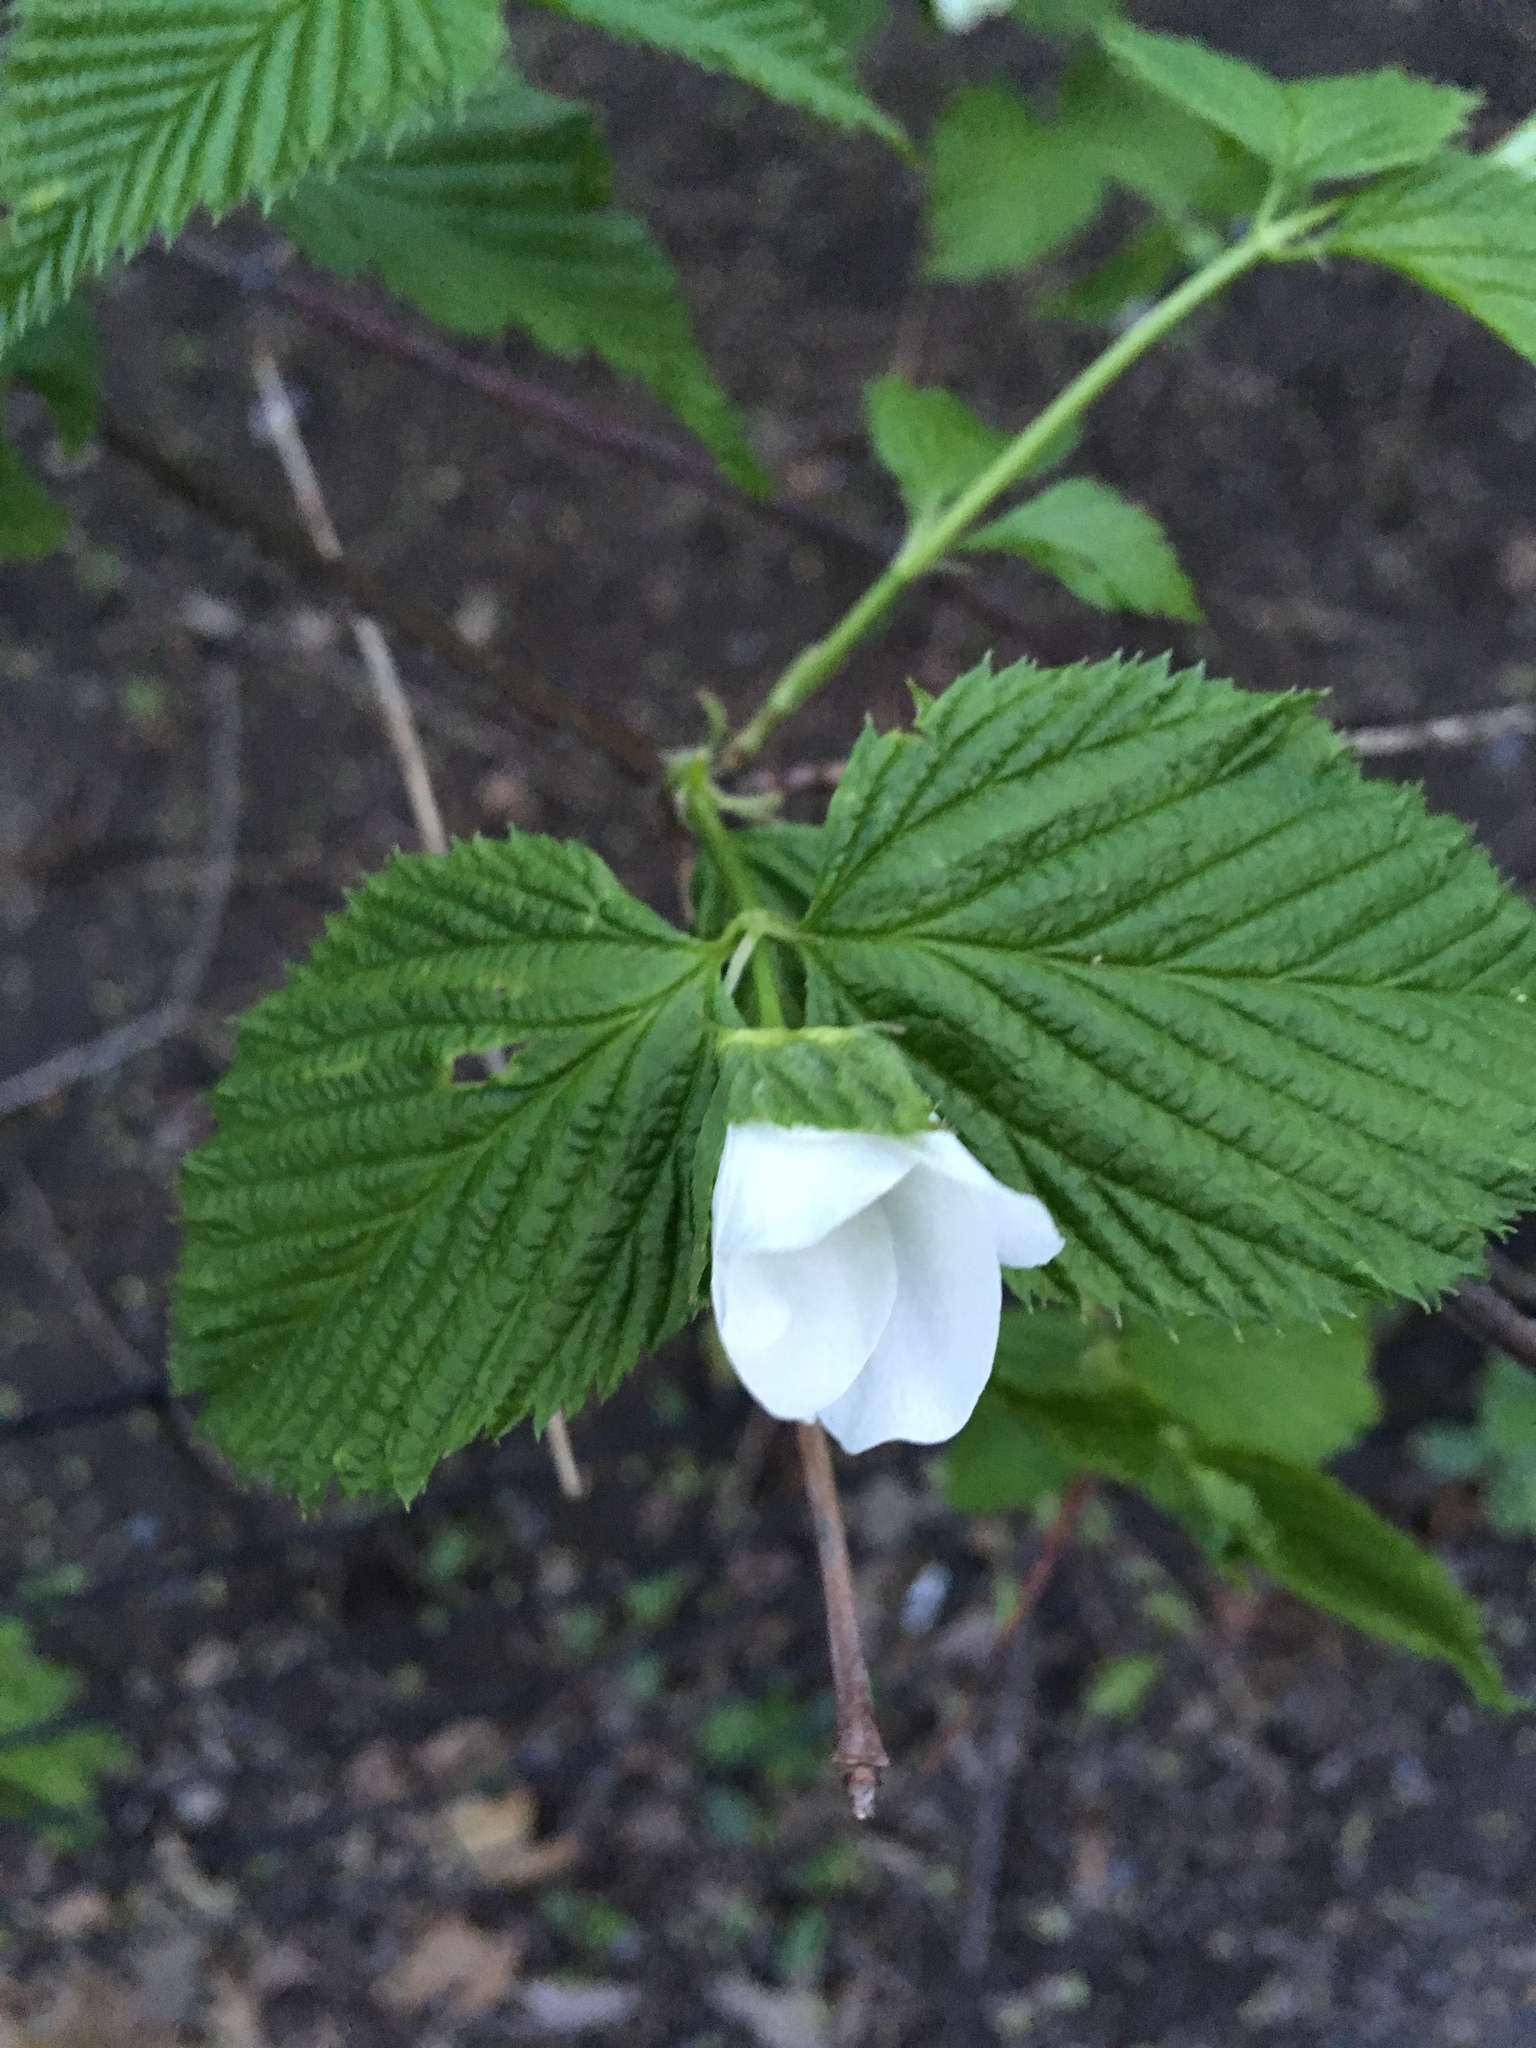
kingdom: Plantae
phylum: Tracheophyta
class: Magnoliopsida
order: Rosales
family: Rosaceae
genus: Rhodotypos
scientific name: Rhodotypos scandens
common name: Jetbead
